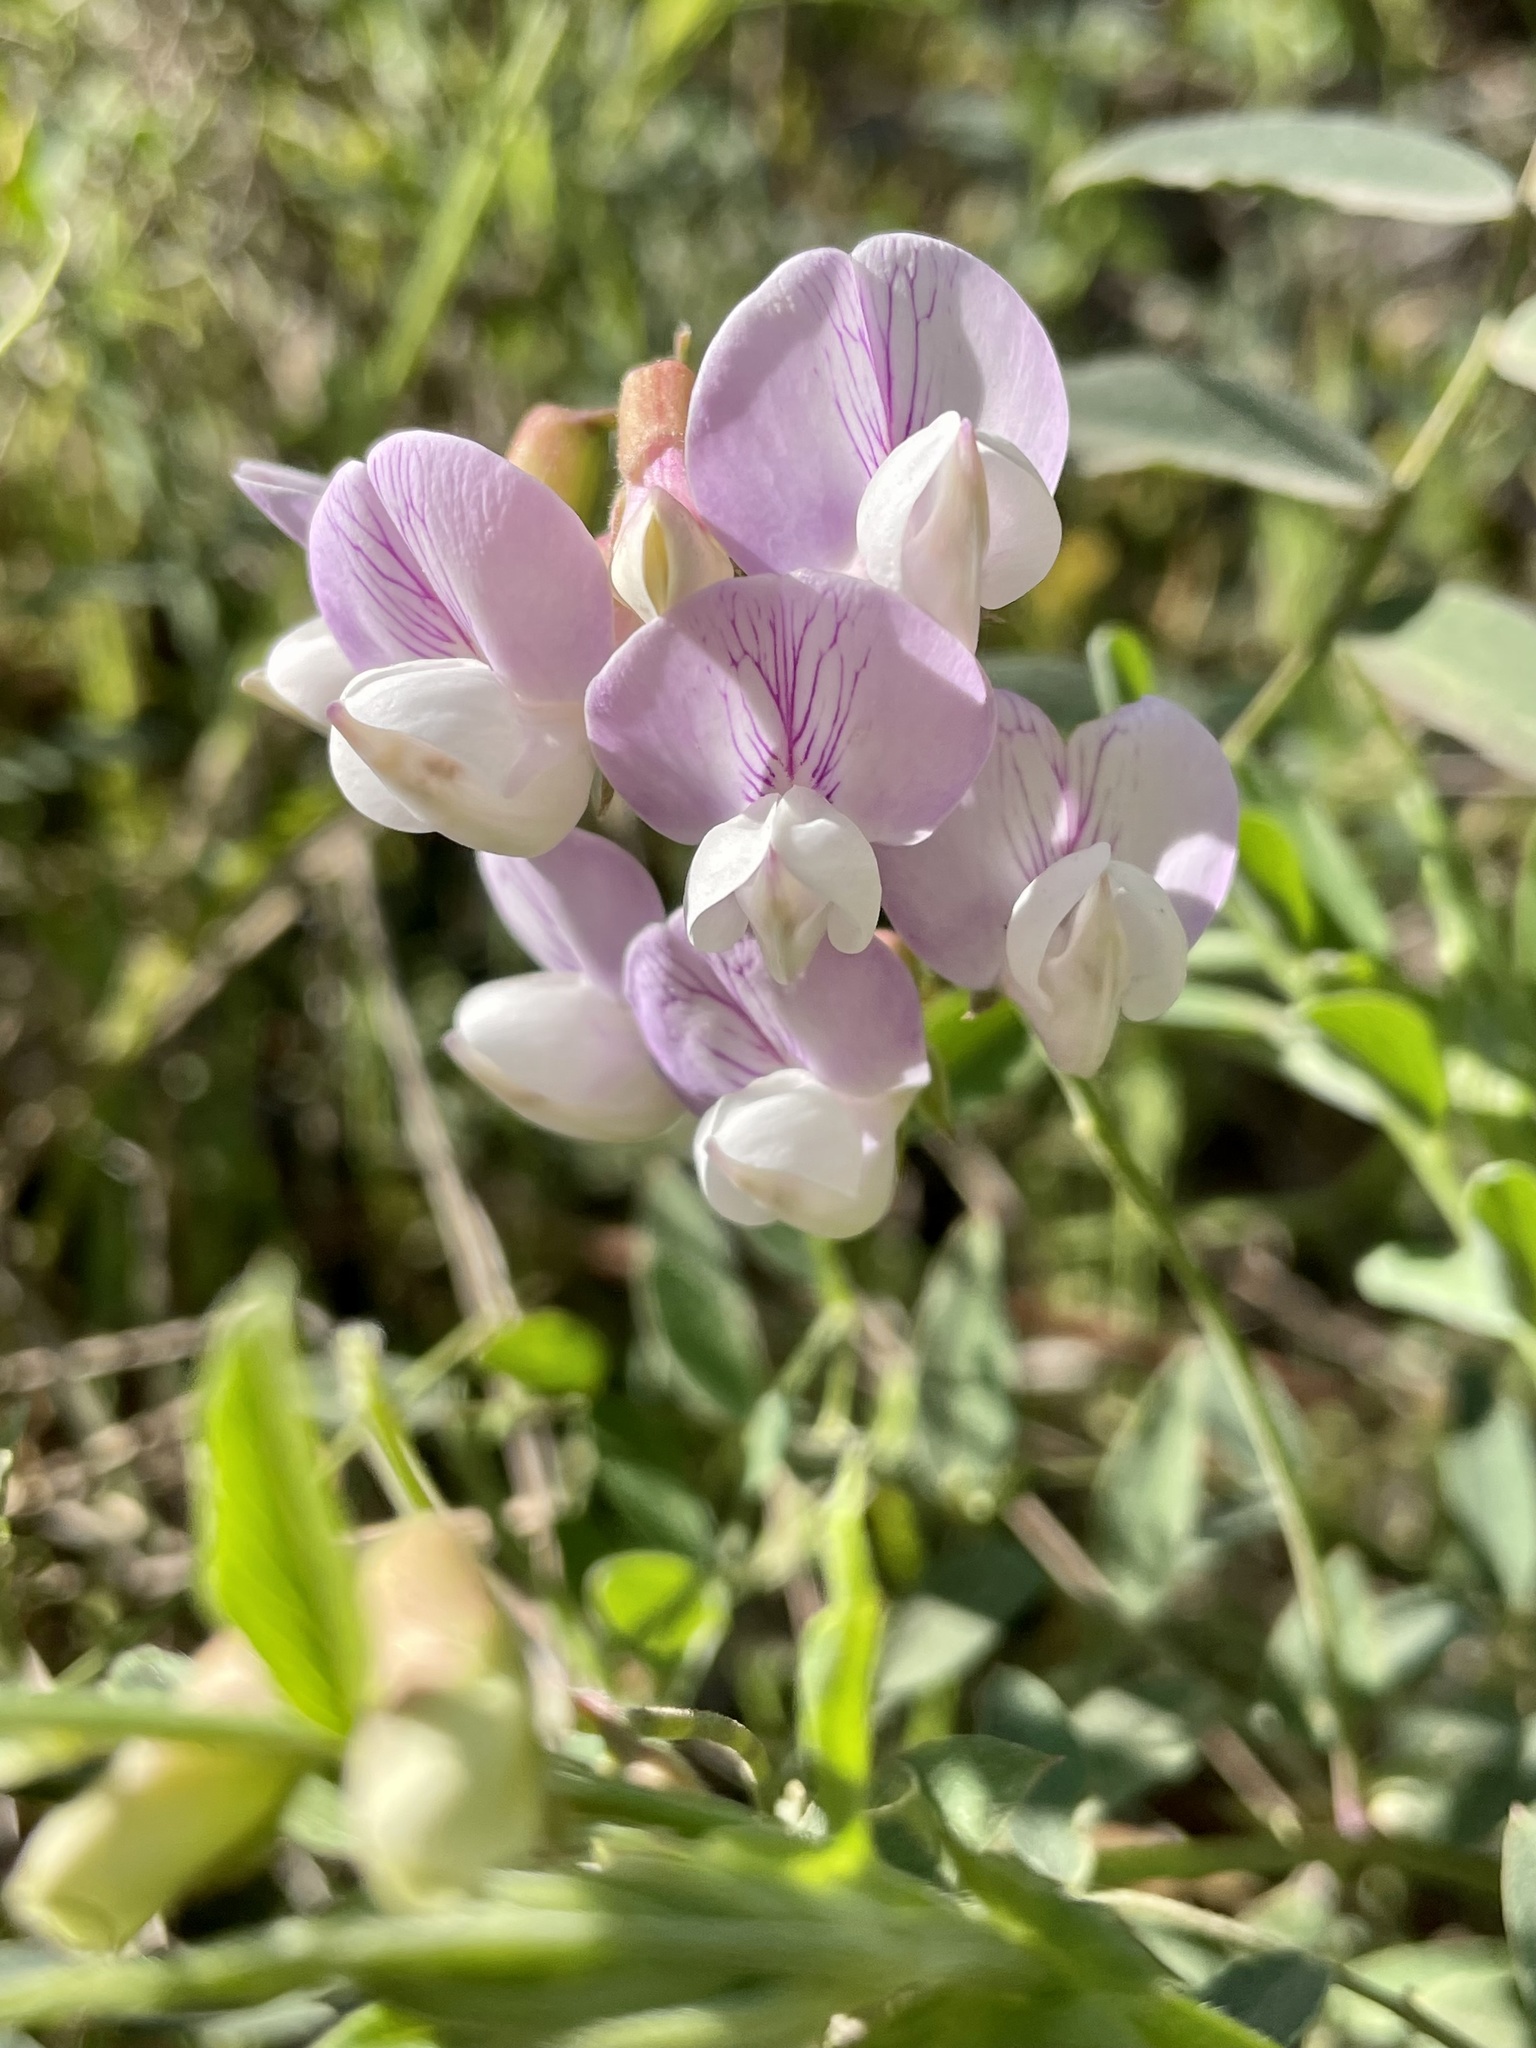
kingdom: Plantae
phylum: Tracheophyta
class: Magnoliopsida
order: Fabales
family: Fabaceae
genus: Lathyrus
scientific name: Lathyrus vestitus
